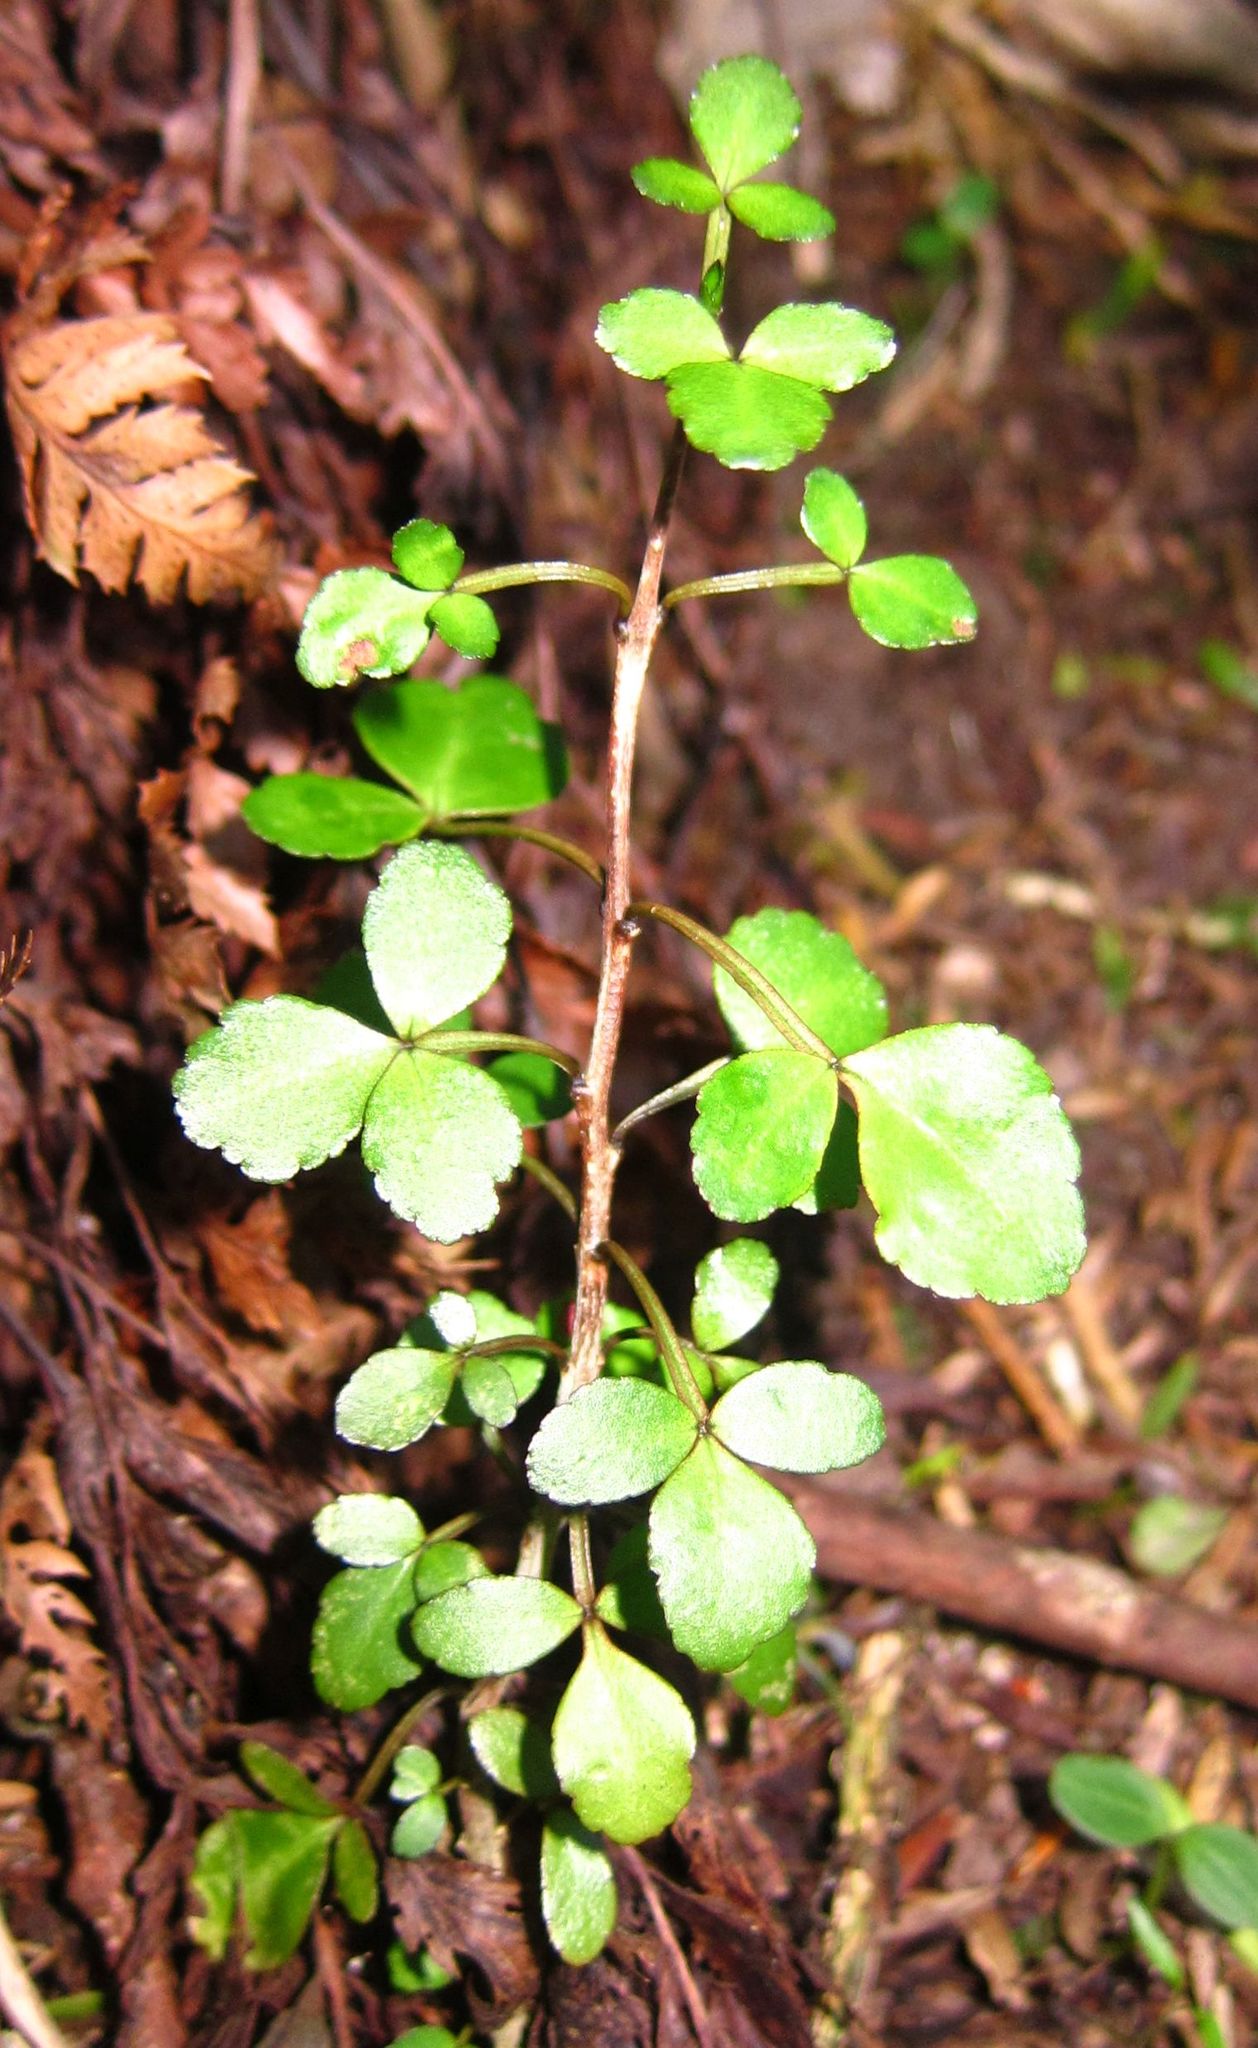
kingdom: Plantae
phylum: Tracheophyta
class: Magnoliopsida
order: Sapindales
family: Rutaceae
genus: Melicope
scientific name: Melicope simplex
